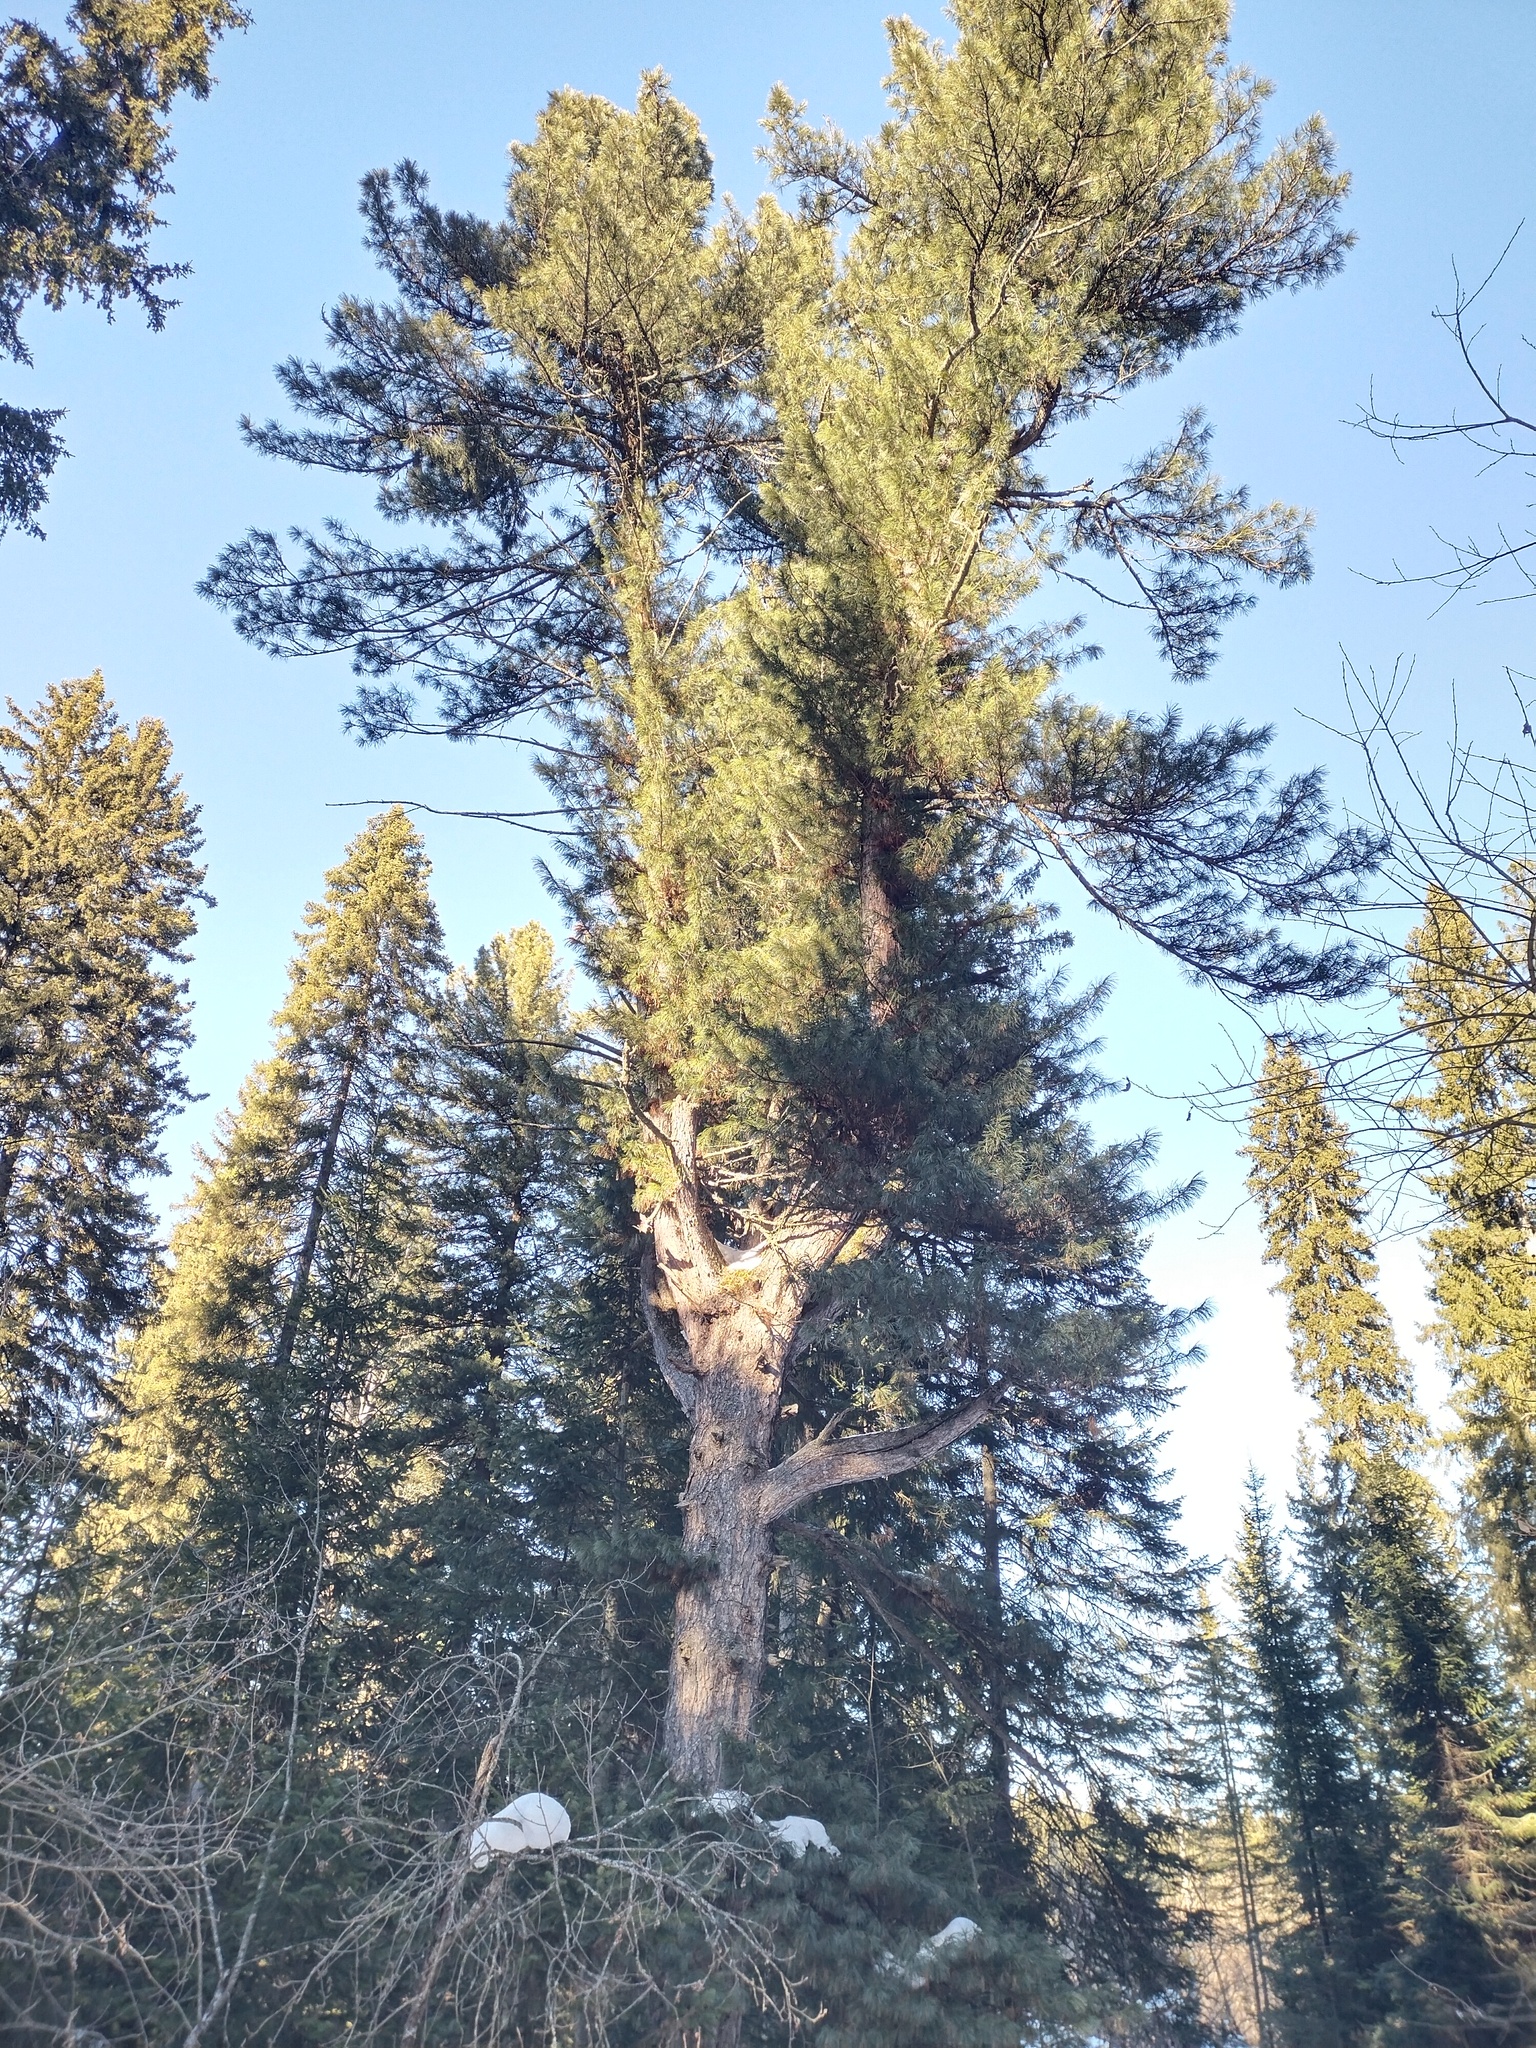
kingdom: Plantae
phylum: Tracheophyta
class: Pinopsida
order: Pinales
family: Pinaceae
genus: Pinus
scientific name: Pinus sibirica
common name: Siberian pine
